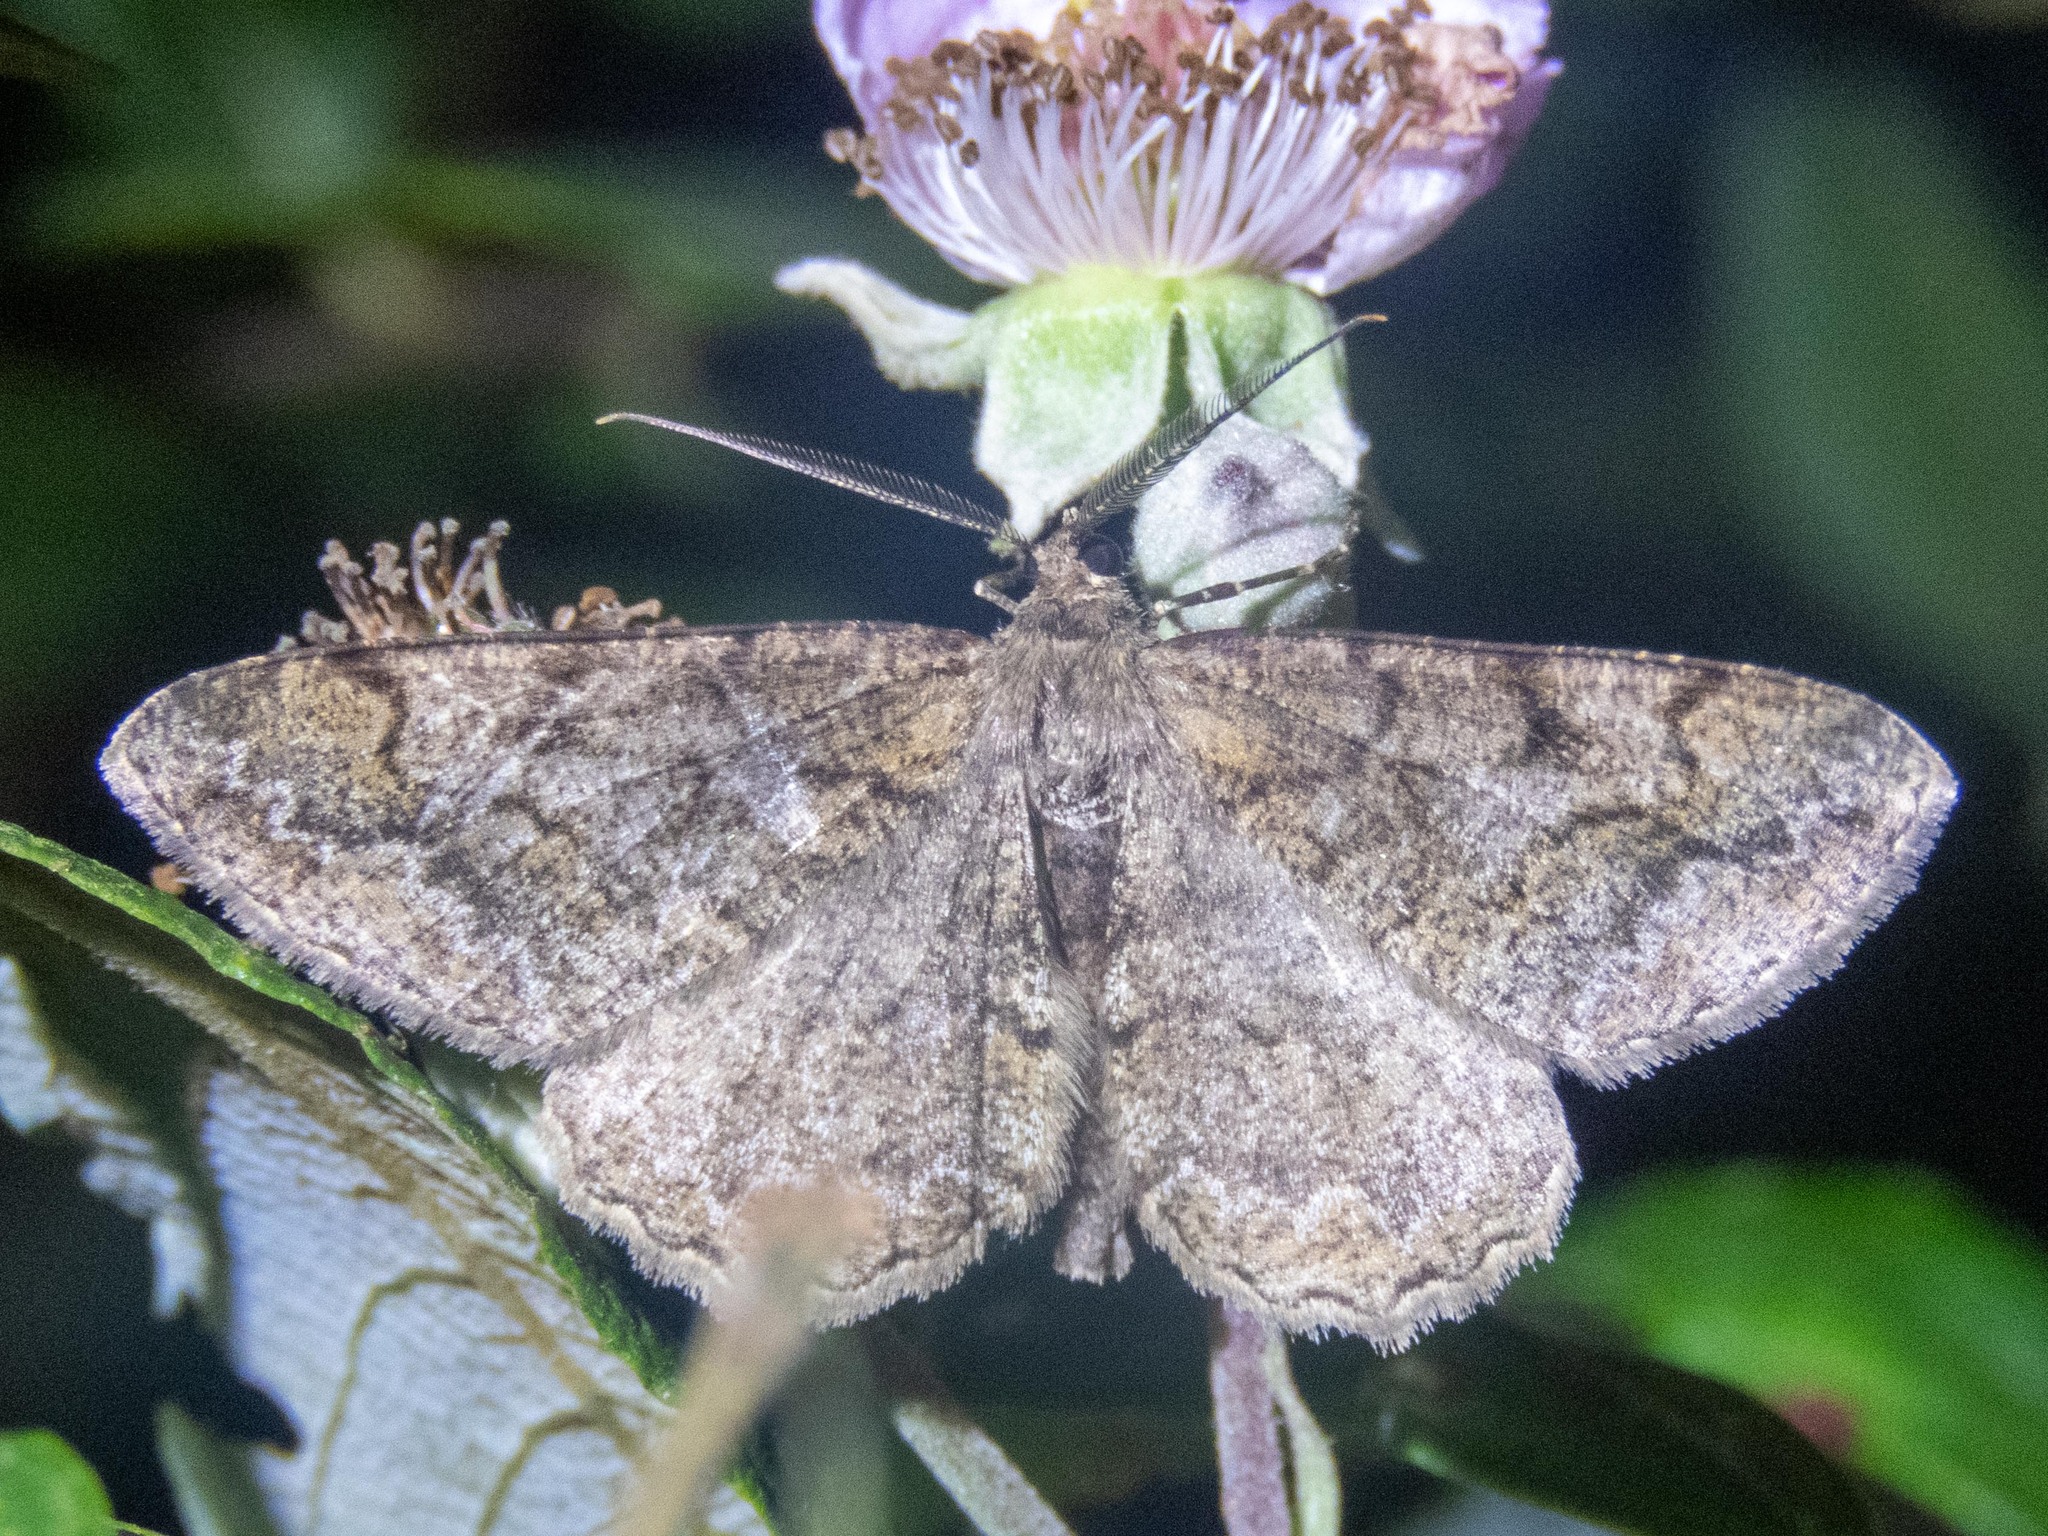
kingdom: Animalia
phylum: Arthropoda
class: Insecta
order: Lepidoptera
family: Geometridae
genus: Alcis
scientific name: Alcis repandata
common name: Mottled beauty
